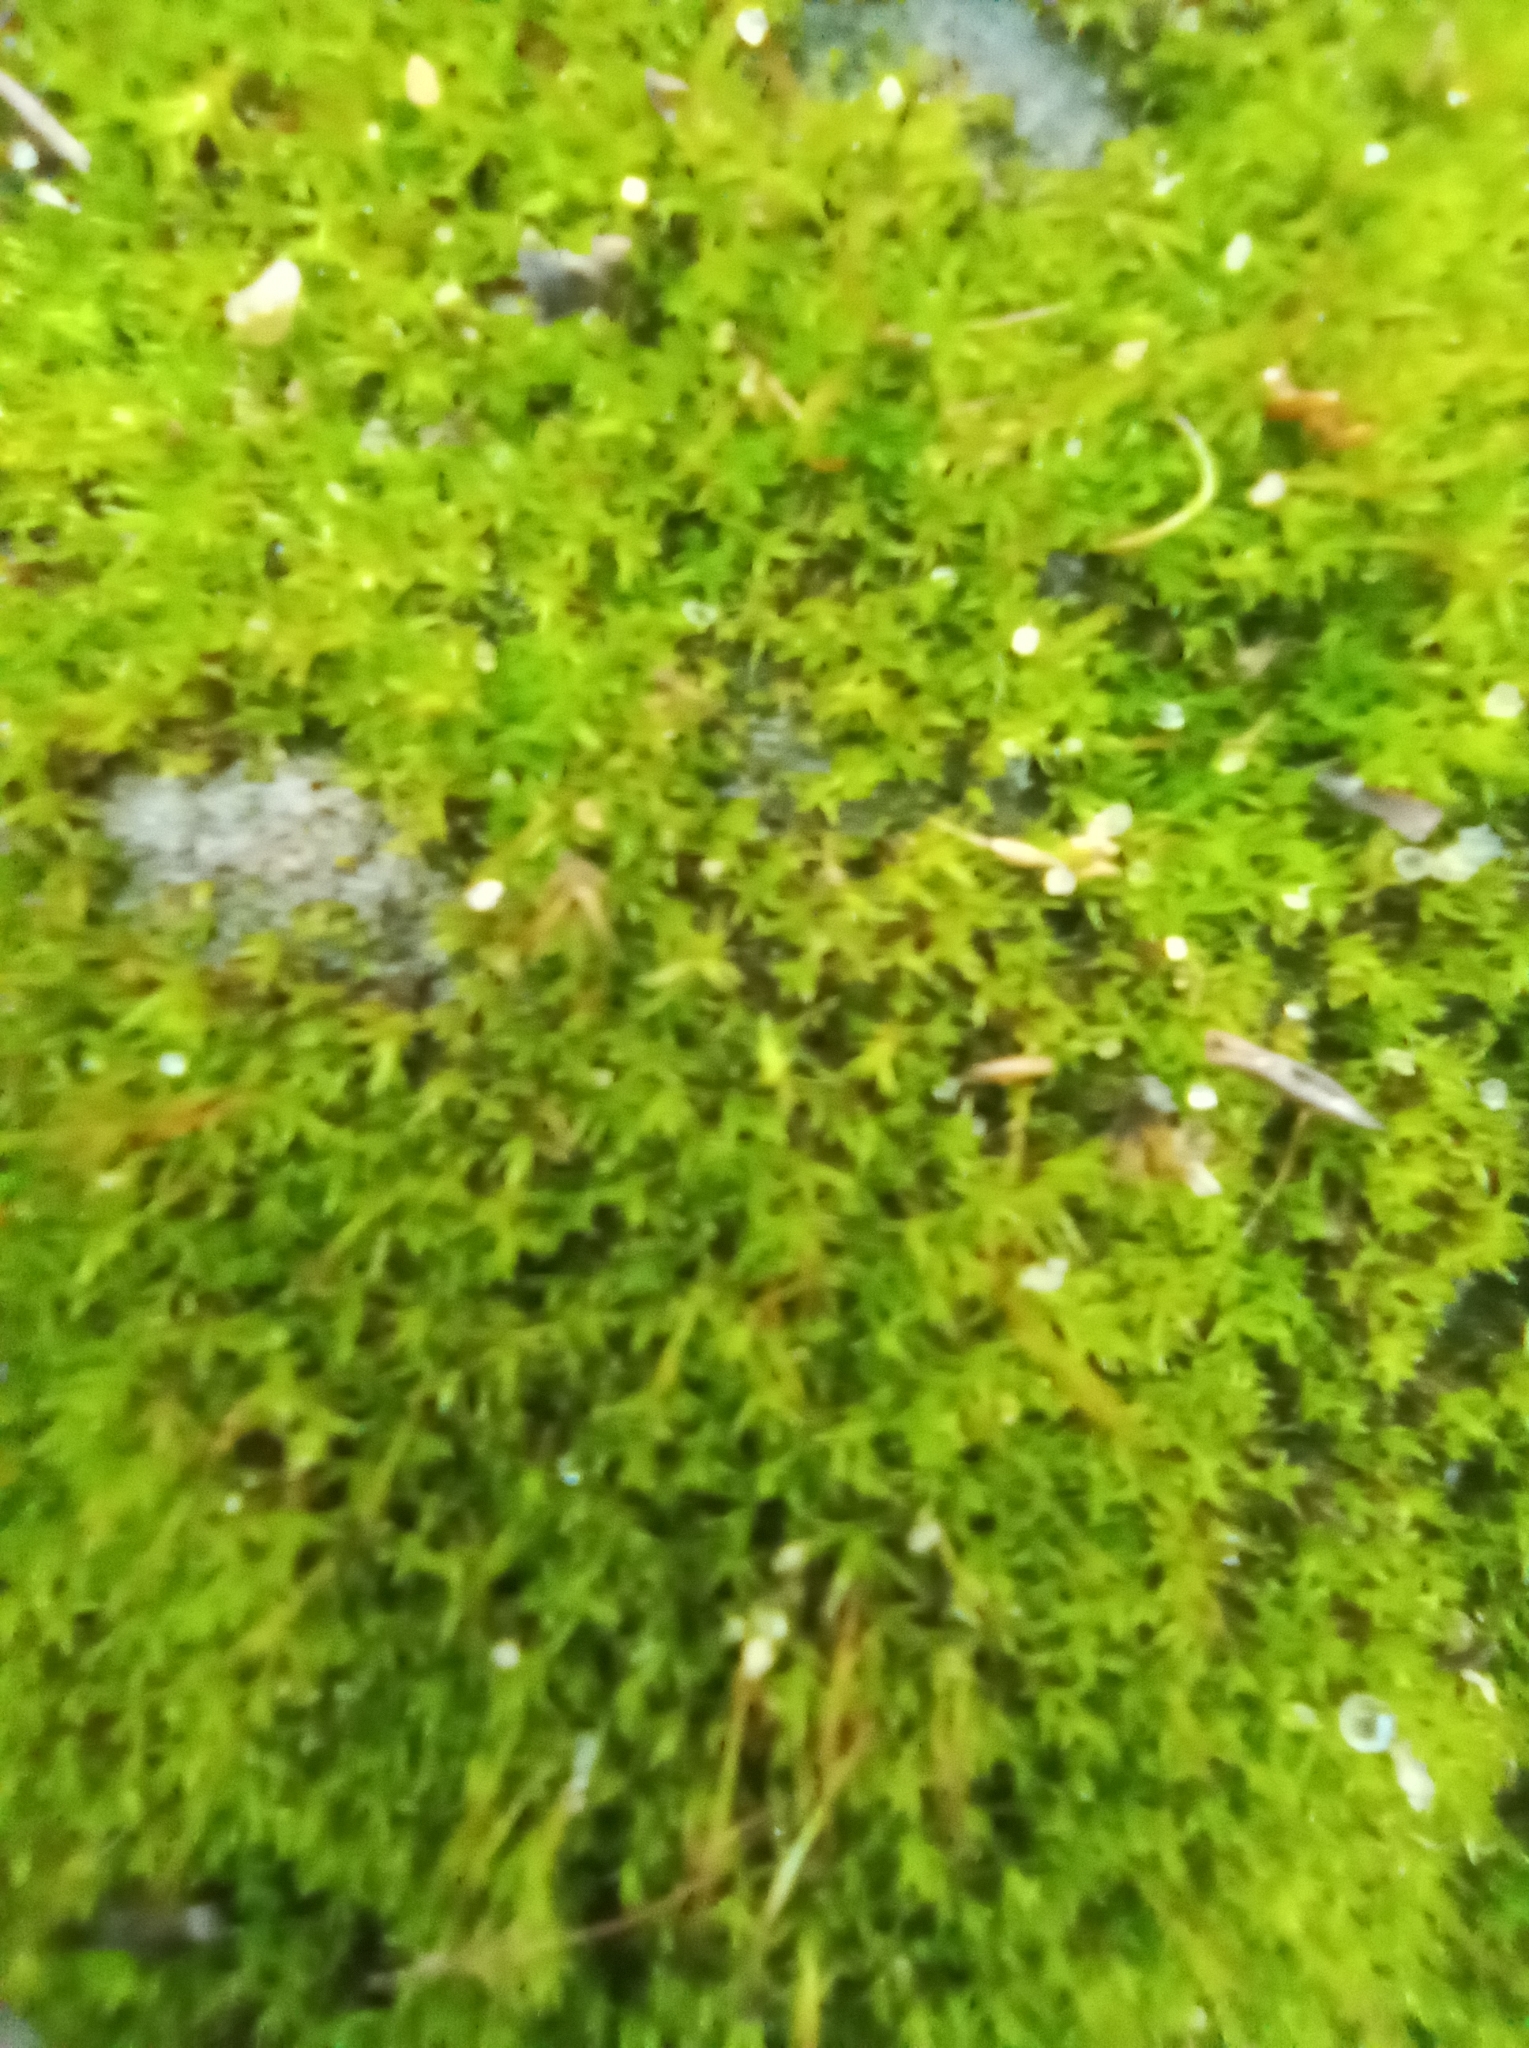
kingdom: Plantae
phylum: Bryophyta
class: Bryopsida
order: Dicranales
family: Ditrichaceae
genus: Ceratodon
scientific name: Ceratodon purpureus
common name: Redshank
